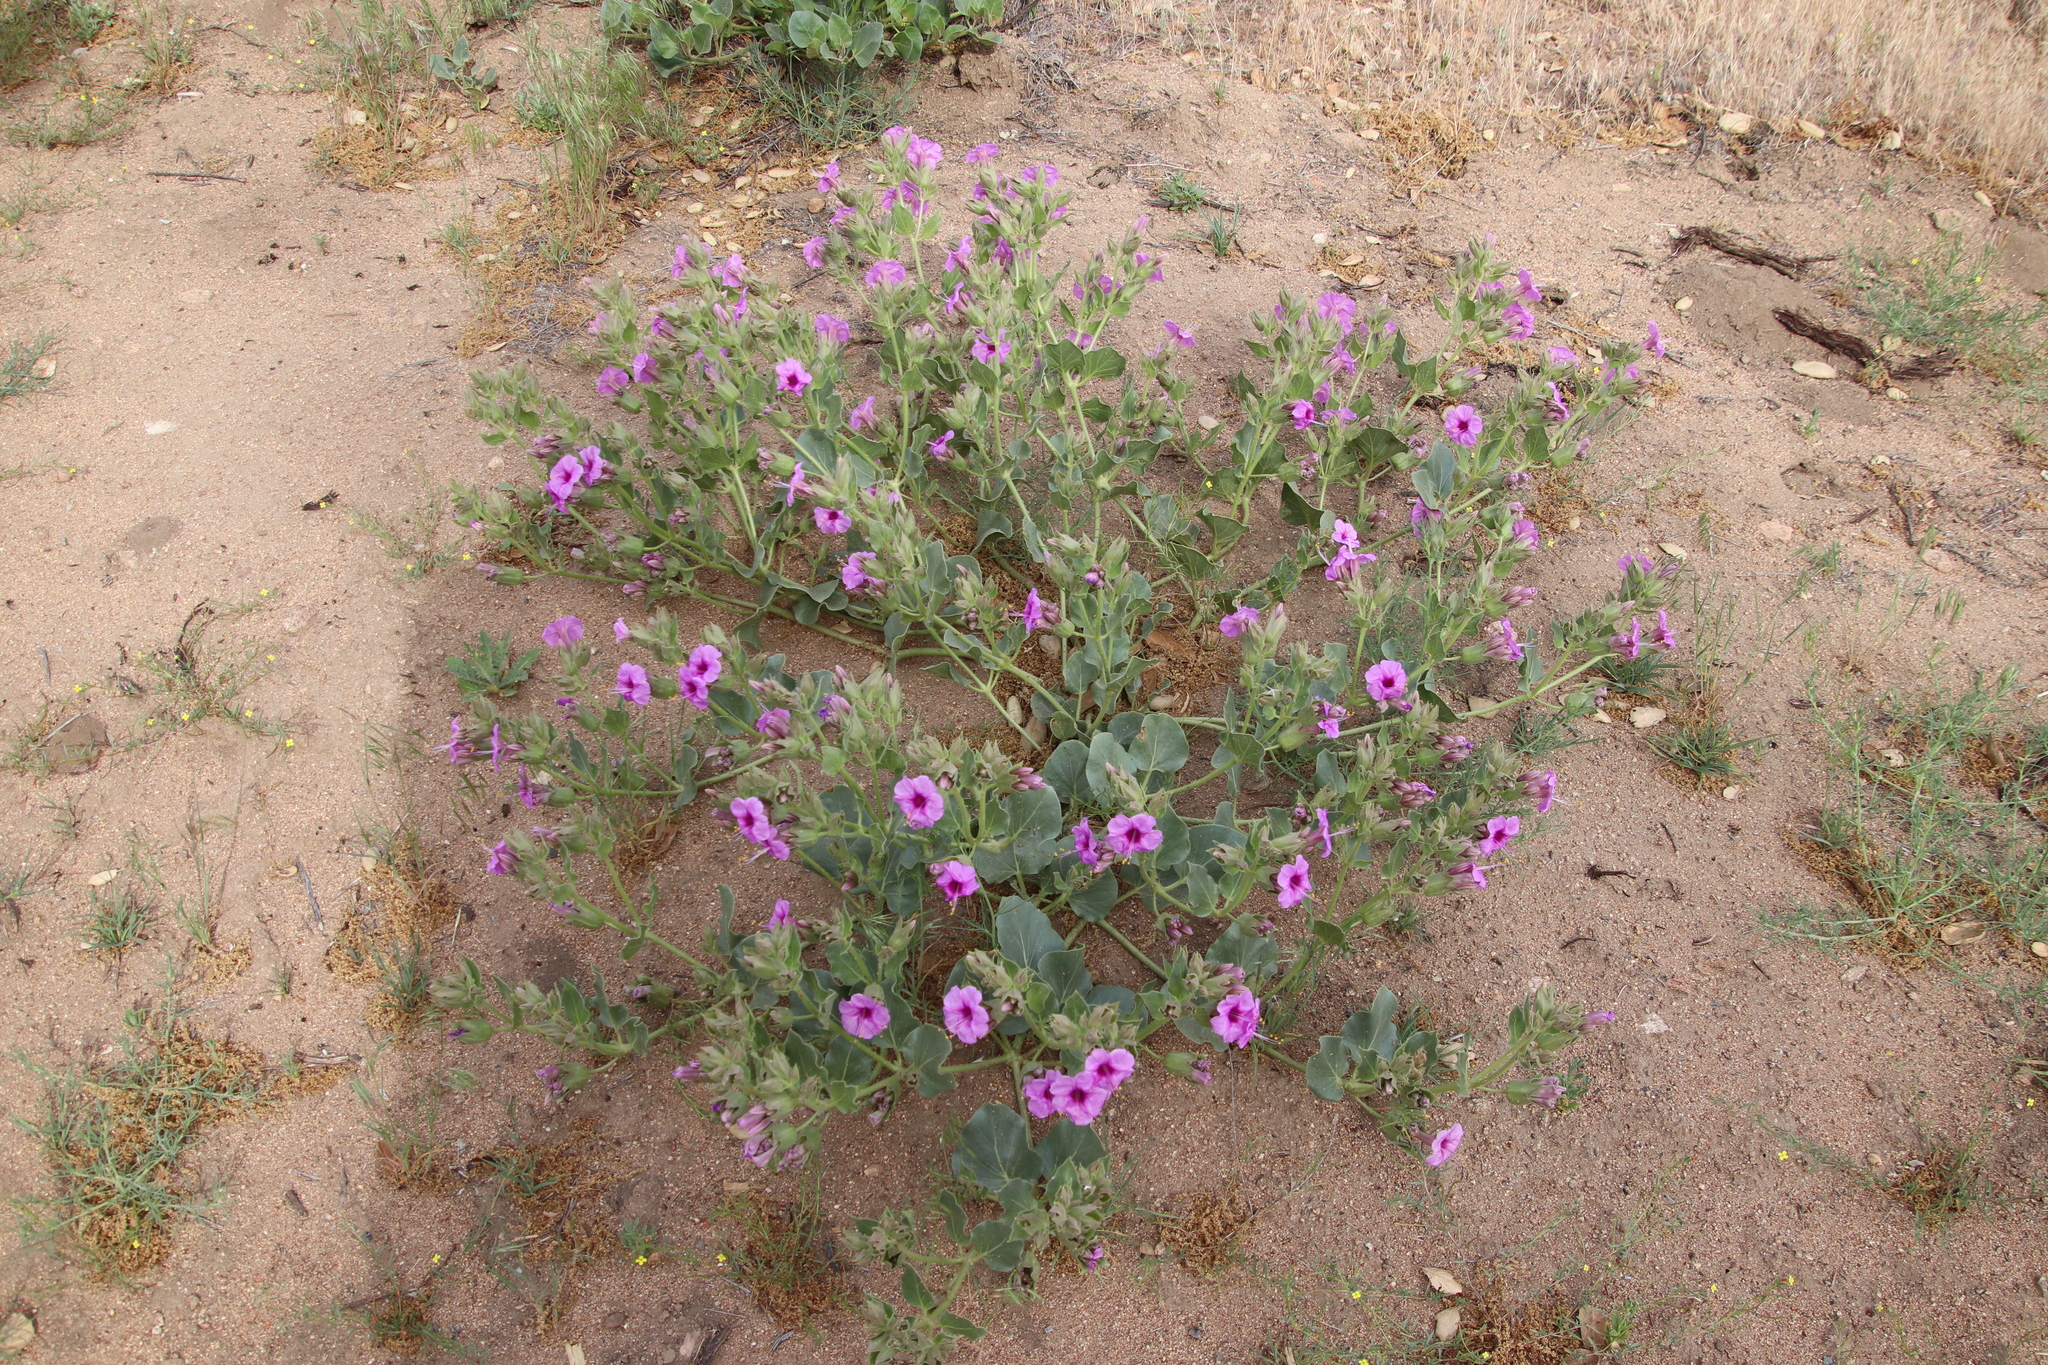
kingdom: Plantae
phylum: Tracheophyta
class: Magnoliopsida
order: Caryophyllales
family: Nyctaginaceae
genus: Mirabilis
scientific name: Mirabilis multiflora
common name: Froebel's four-o'clock
